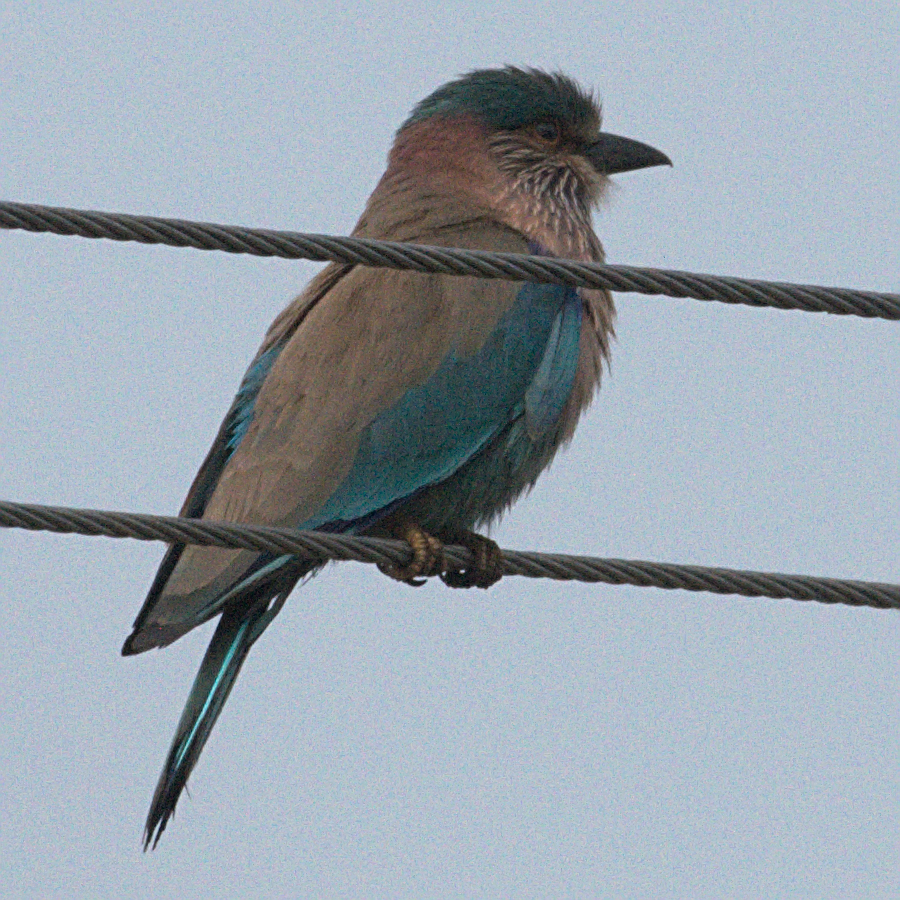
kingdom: Animalia
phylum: Chordata
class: Aves
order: Coraciiformes
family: Coraciidae
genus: Coracias
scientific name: Coracias benghalensis
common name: Indian roller
